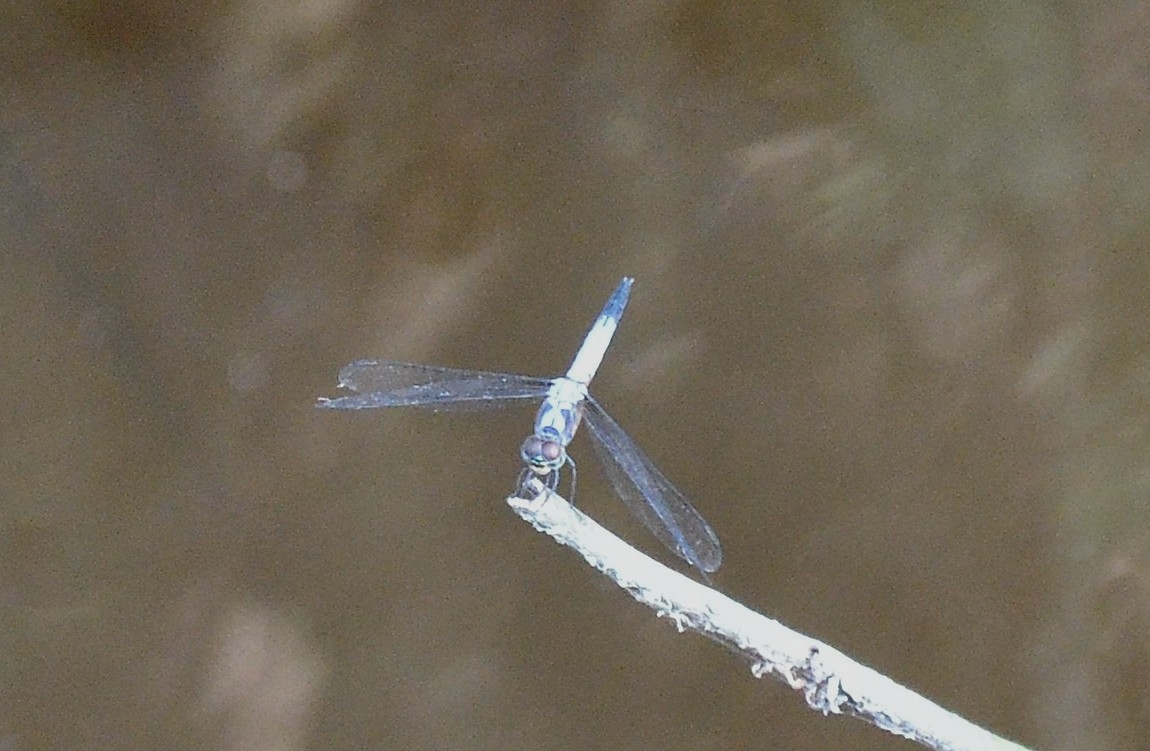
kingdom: Animalia
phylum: Arthropoda
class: Insecta
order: Odonata
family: Libellulidae
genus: Brachydiplax
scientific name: Brachydiplax chalybea
